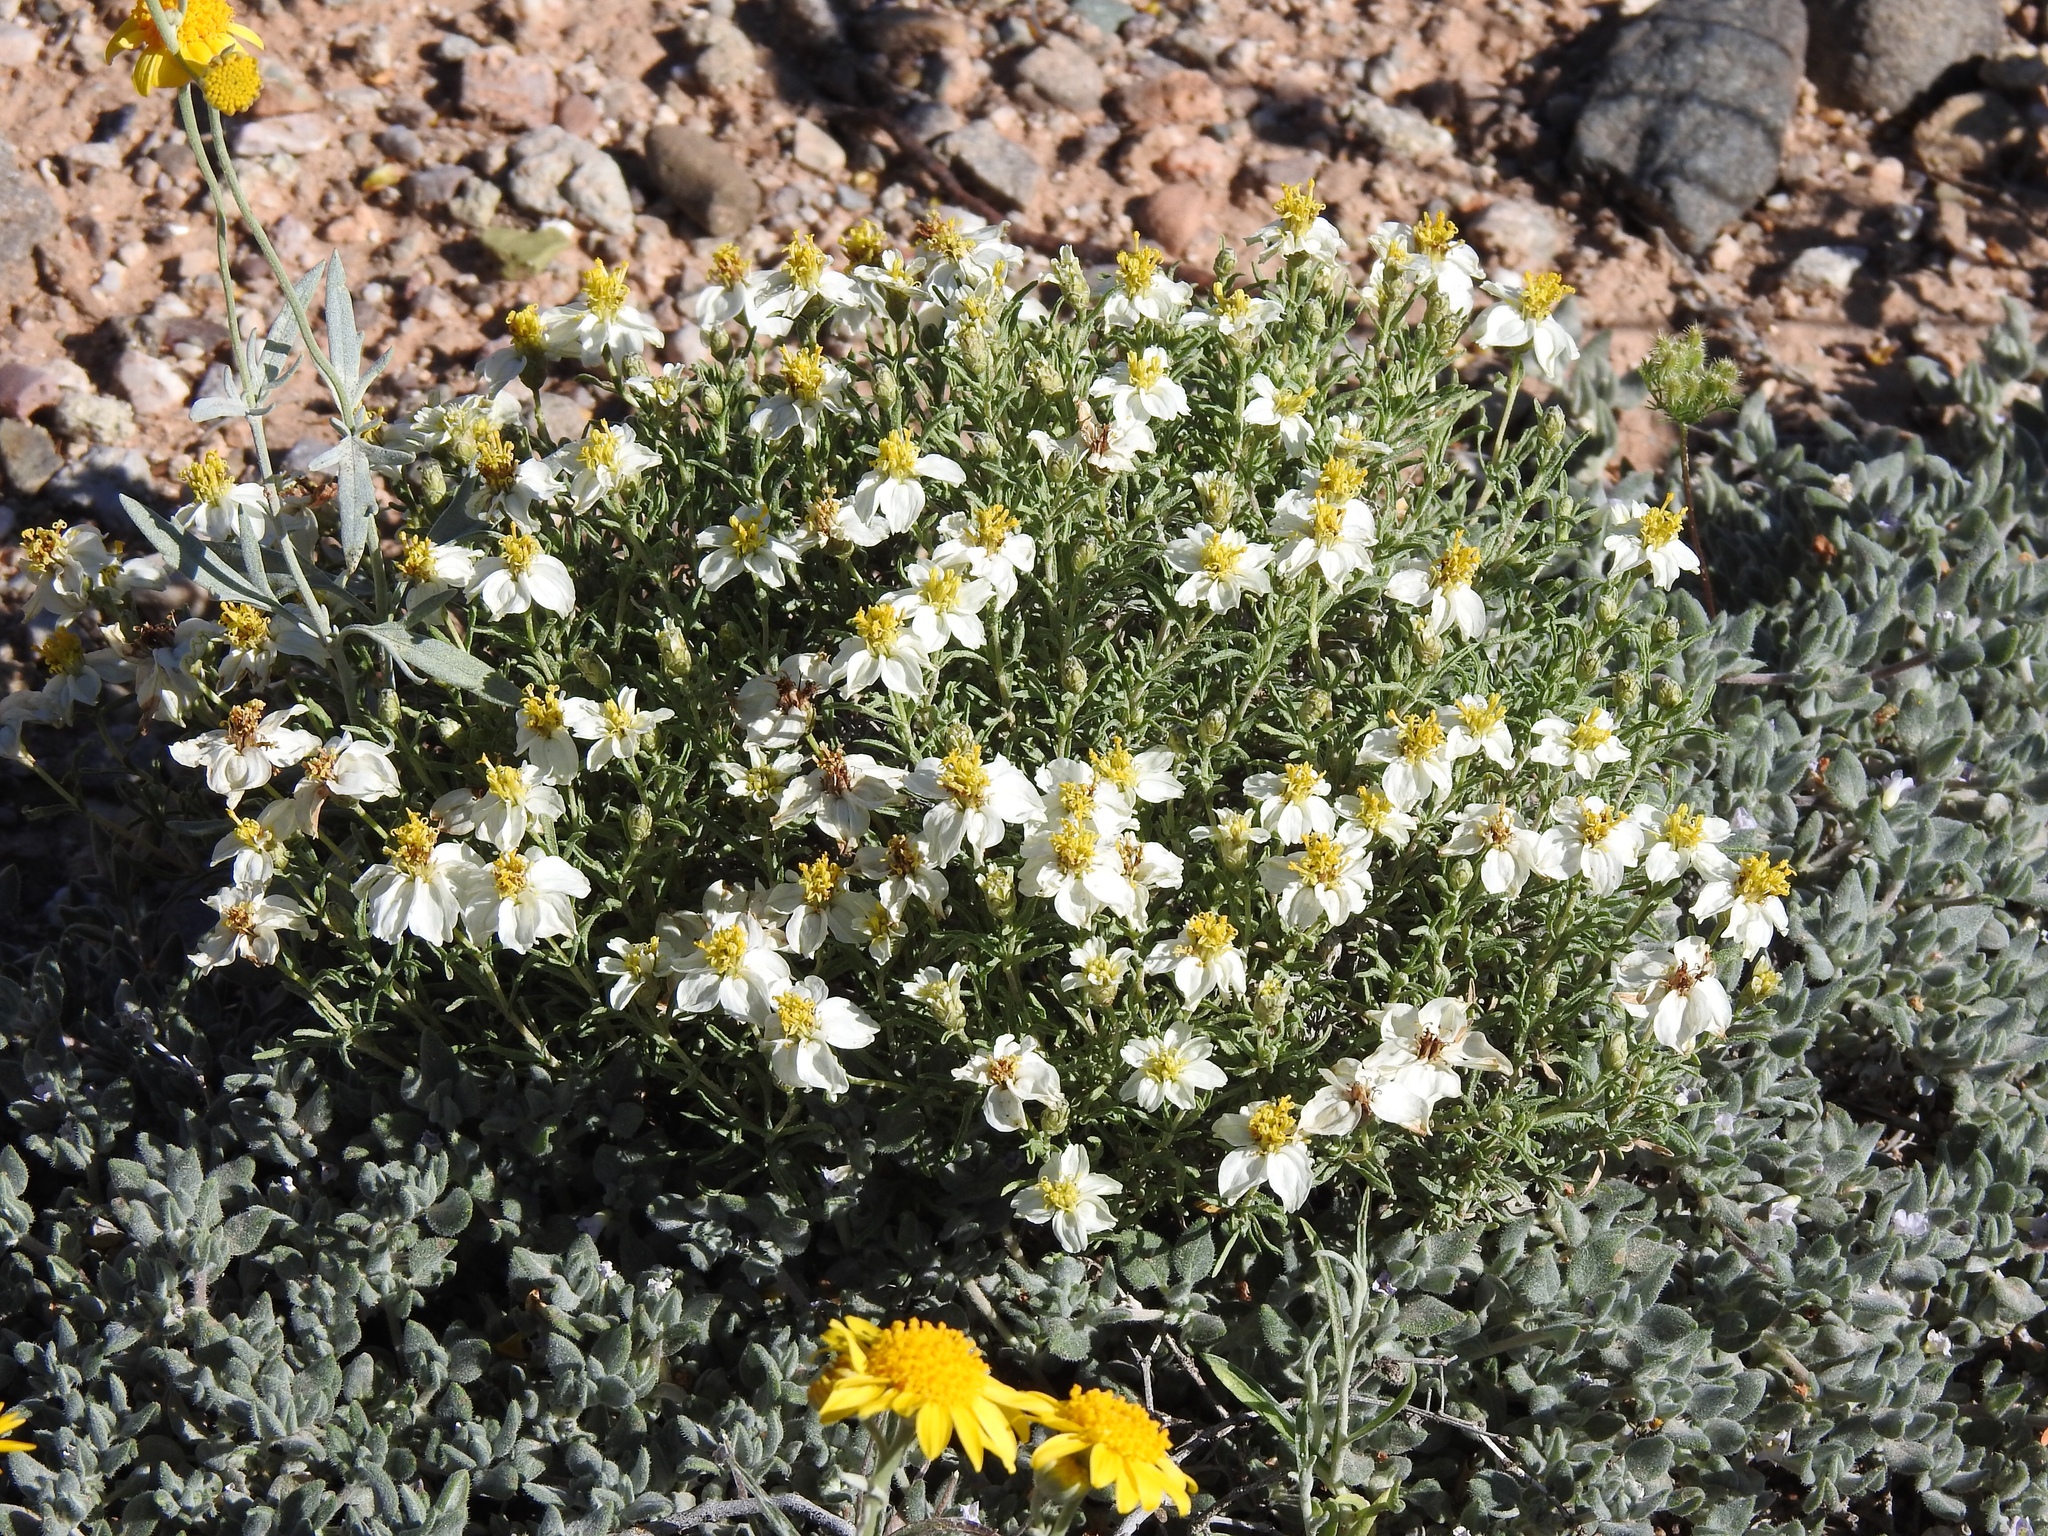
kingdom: Plantae
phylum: Tracheophyta
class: Magnoliopsida
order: Asterales
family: Asteraceae
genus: Zinnia
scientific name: Zinnia acerosa
